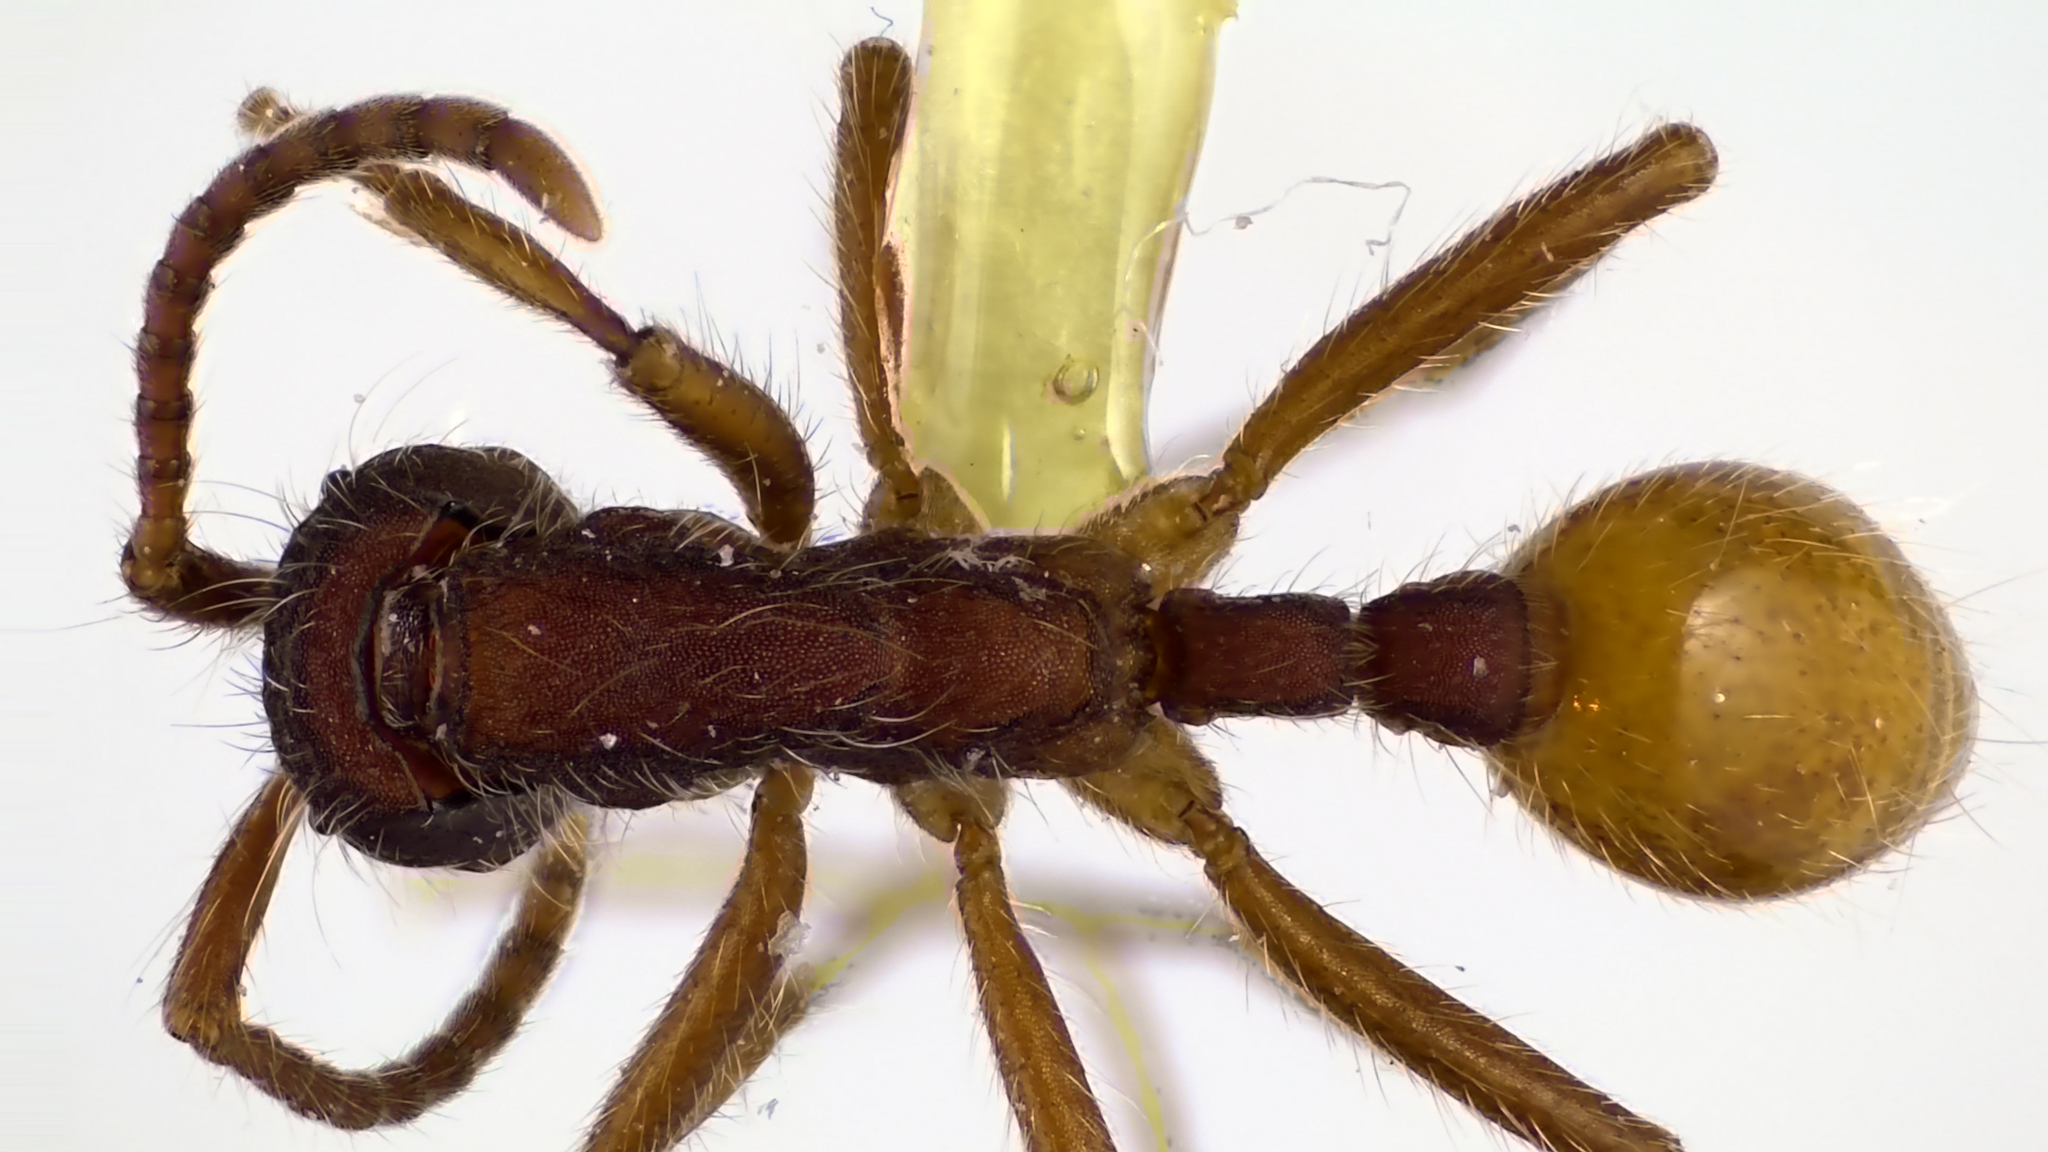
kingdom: Animalia
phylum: Arthropoda
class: Insecta
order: Hymenoptera
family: Formicidae
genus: Neivamyrmex
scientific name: Neivamyrmex texanus
